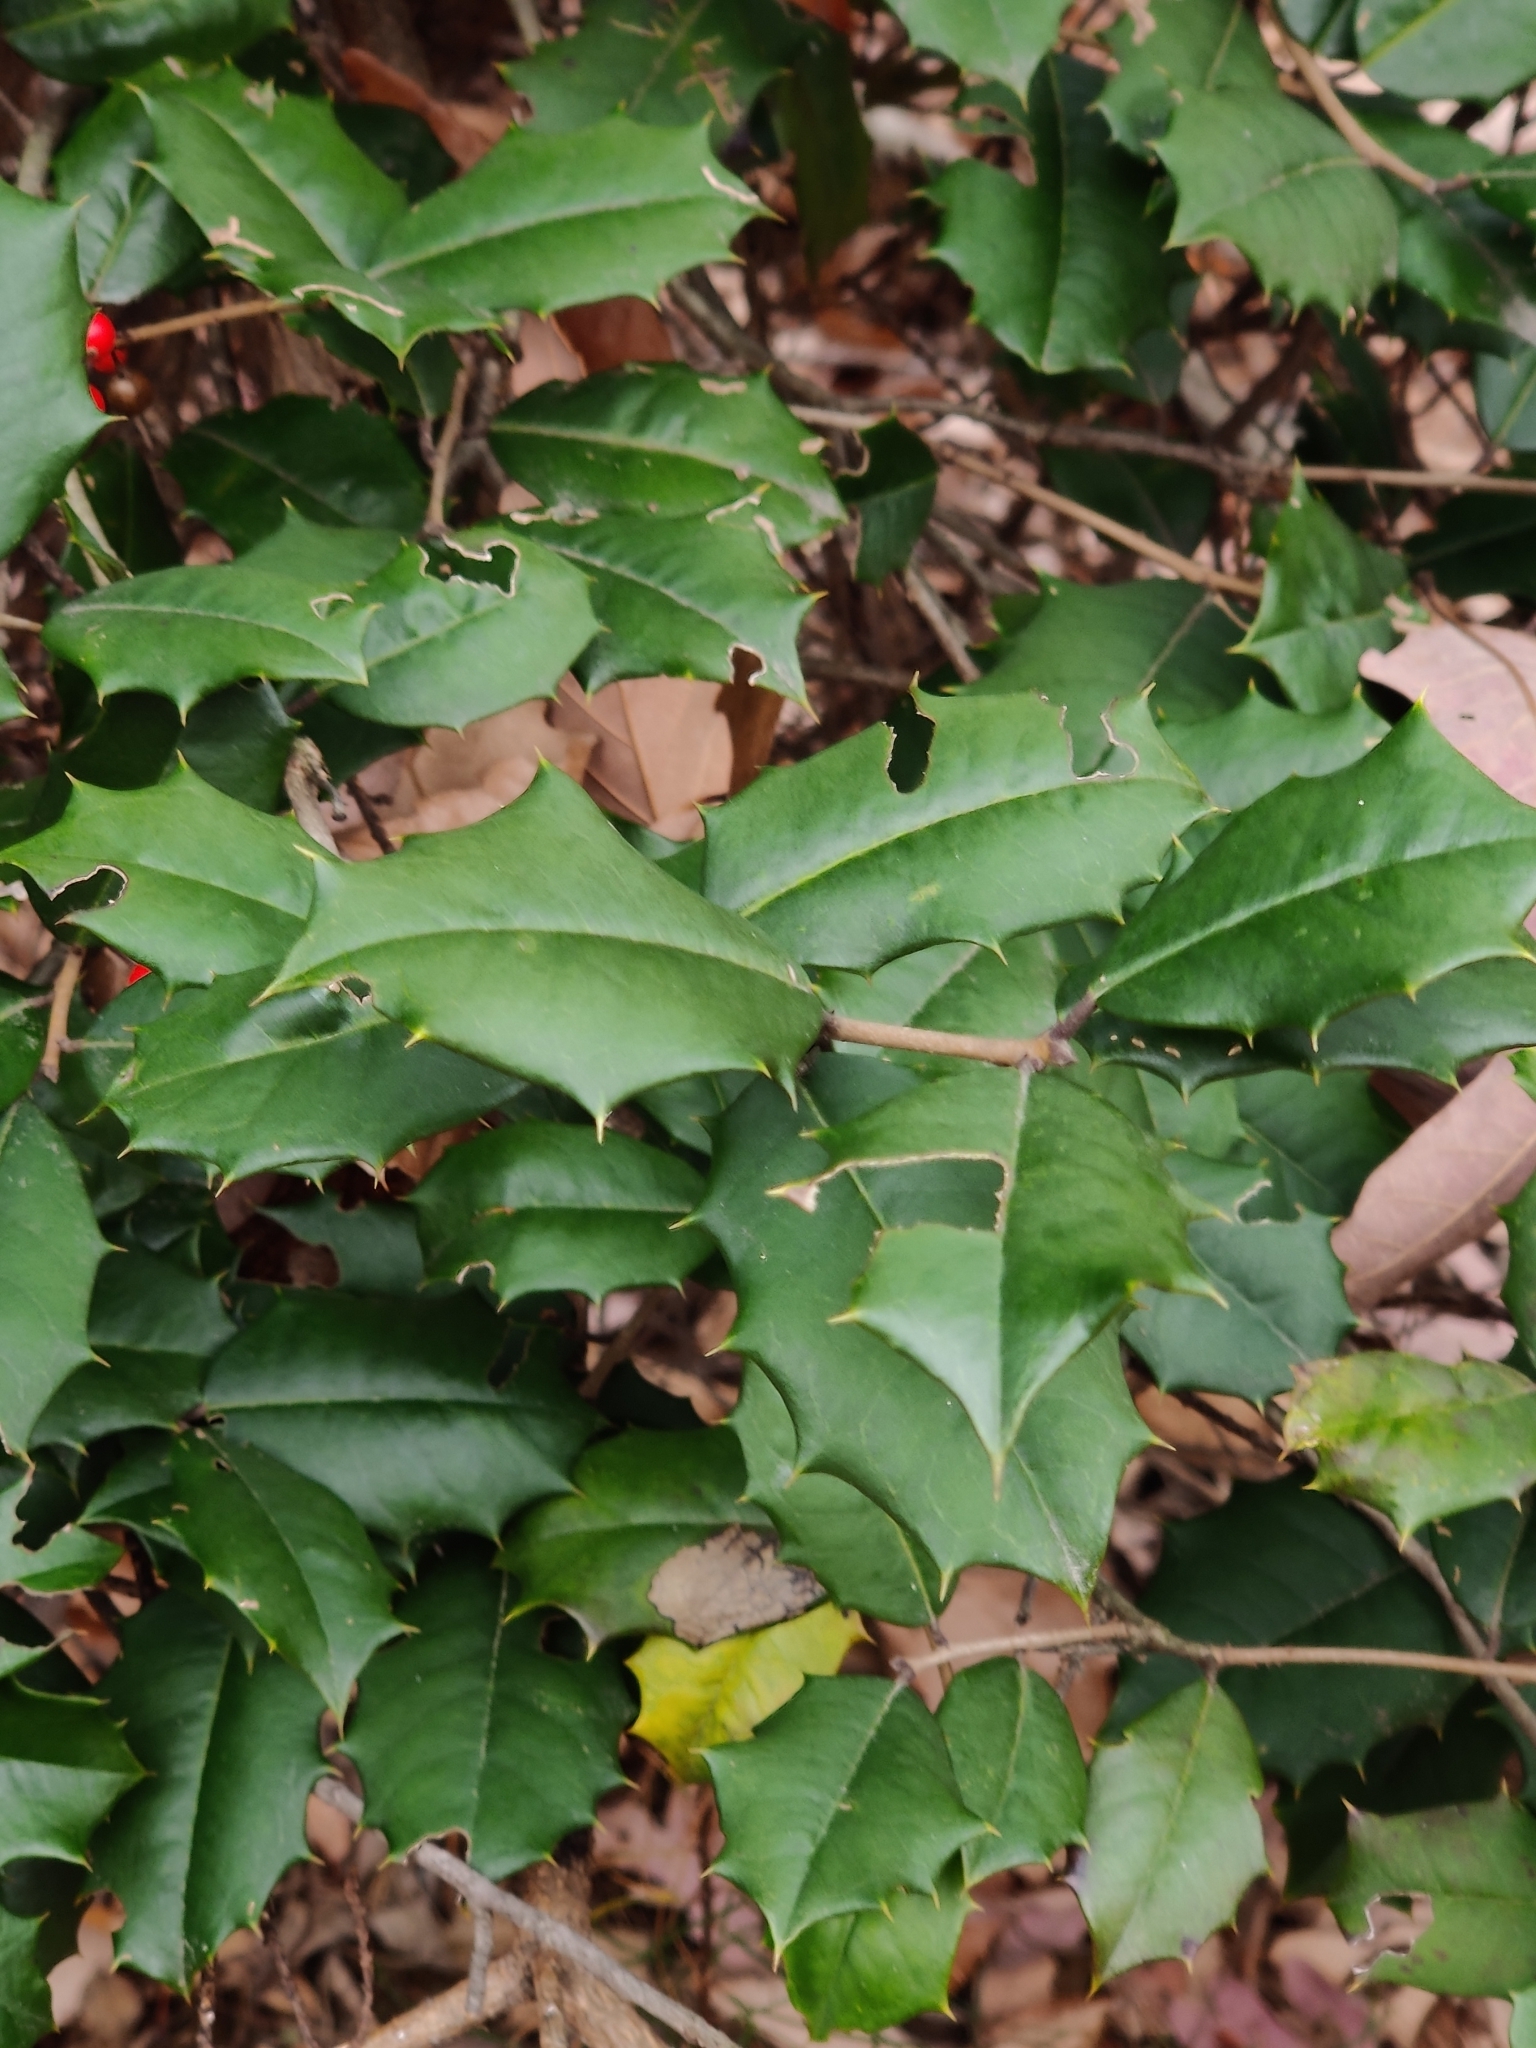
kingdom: Plantae
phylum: Tracheophyta
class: Magnoliopsida
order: Aquifoliales
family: Aquifoliaceae
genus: Ilex
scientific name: Ilex opaca
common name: American holly
